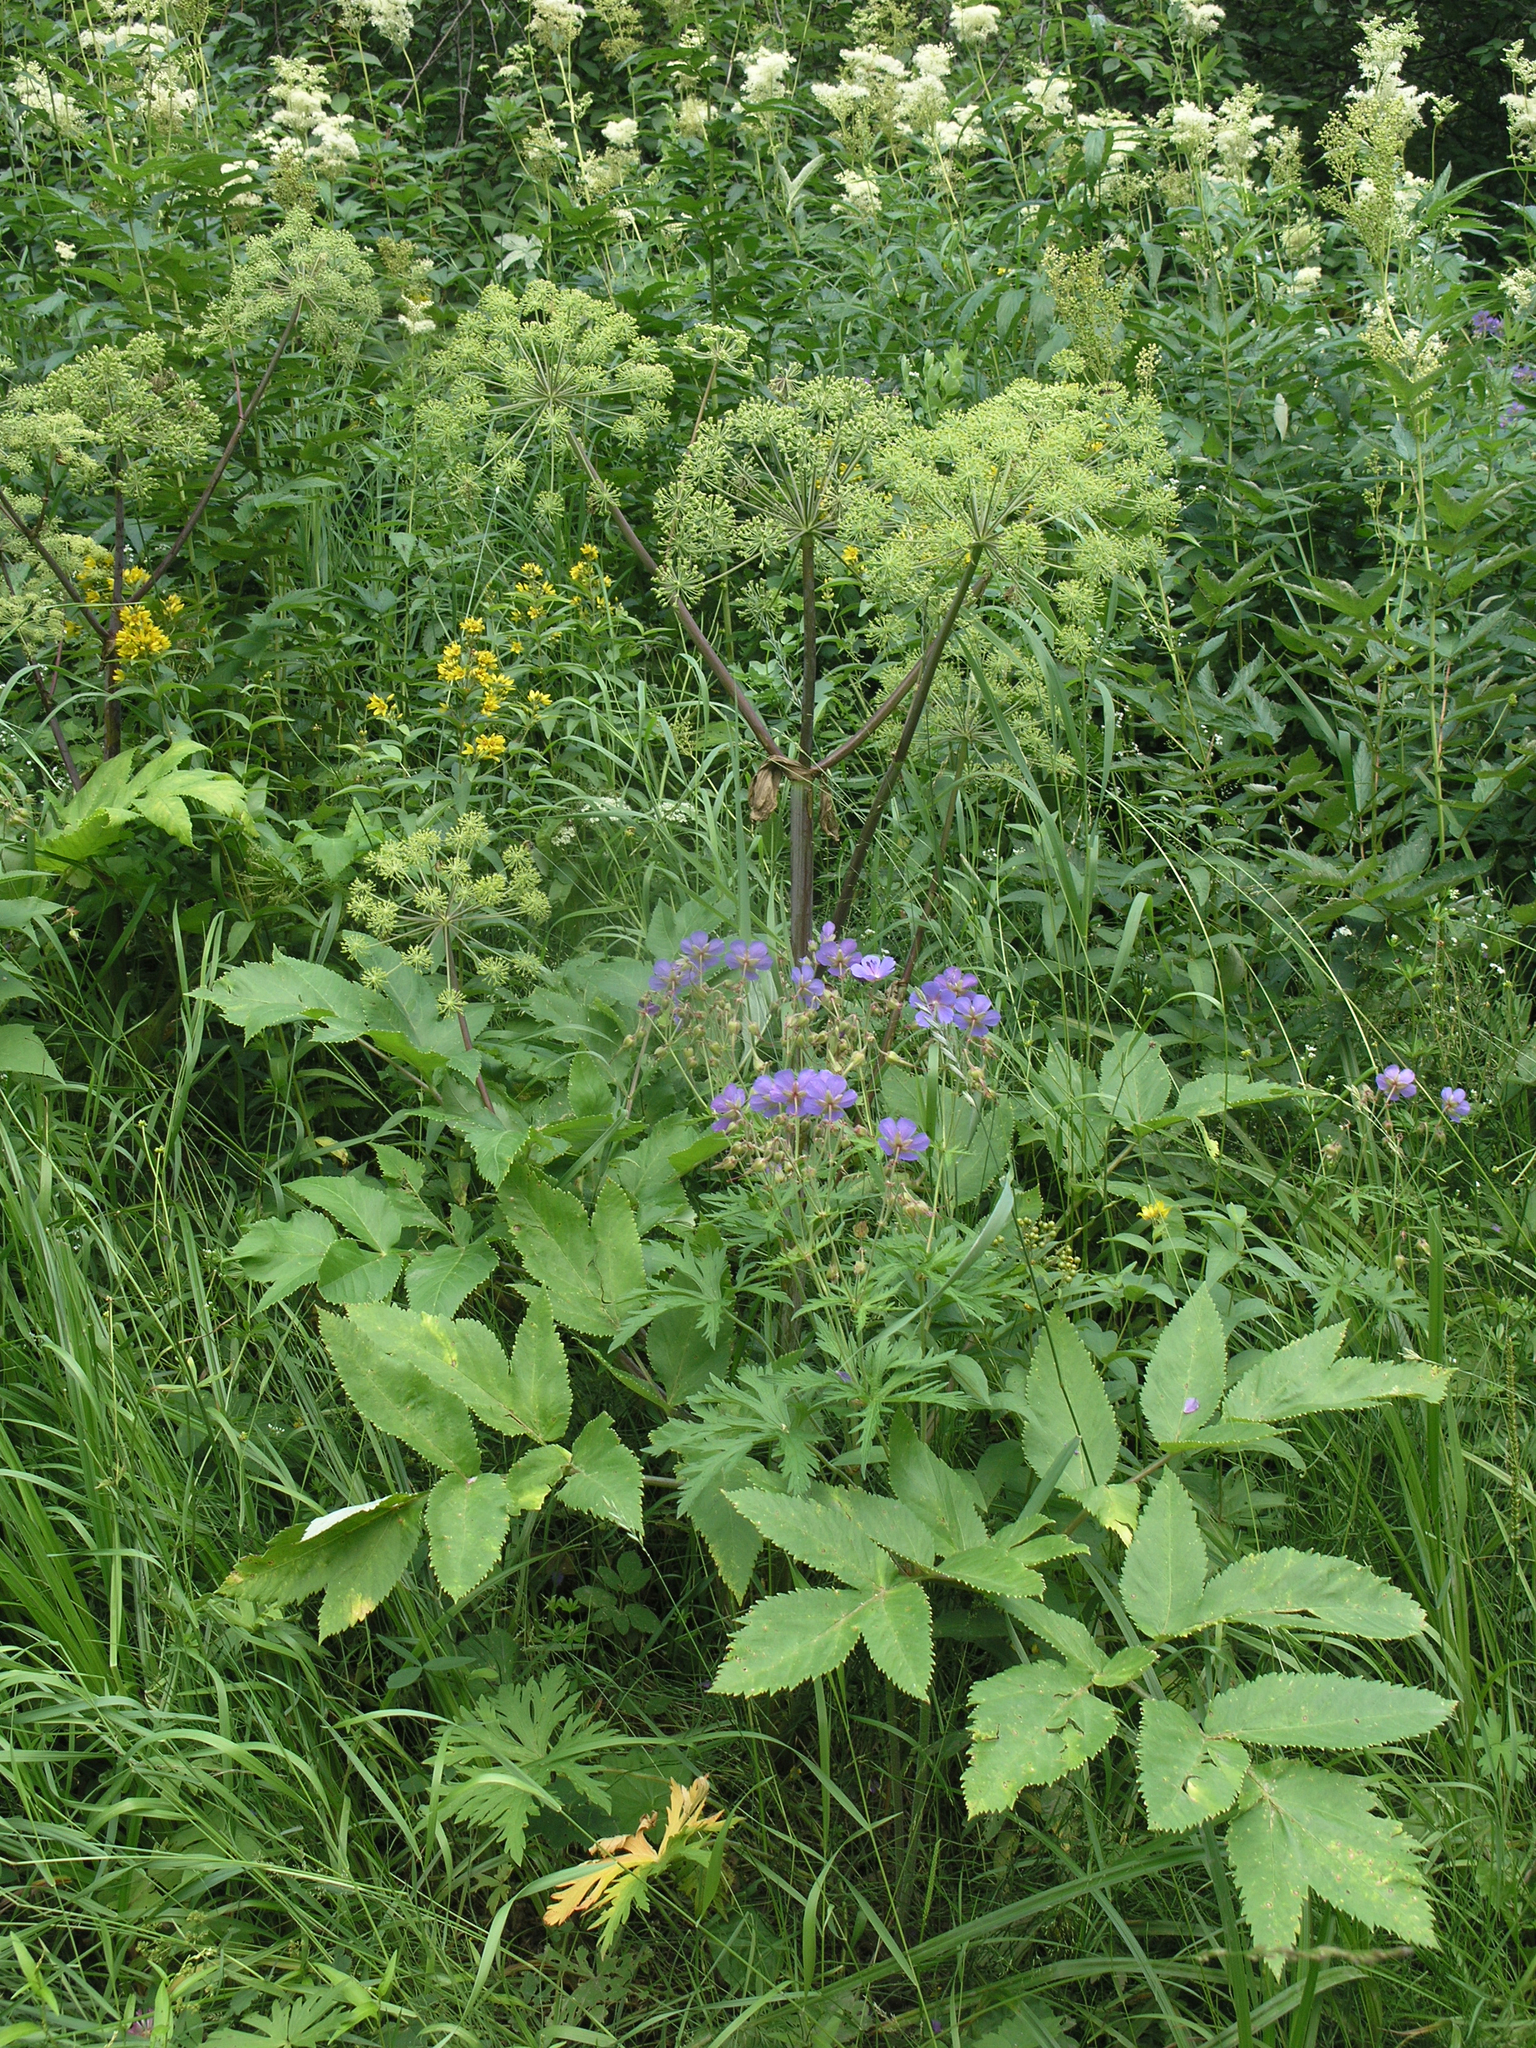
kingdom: Plantae
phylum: Tracheophyta
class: Magnoliopsida
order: Apiales
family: Apiaceae
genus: Angelica
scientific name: Angelica archangelica
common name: Garden angelica
